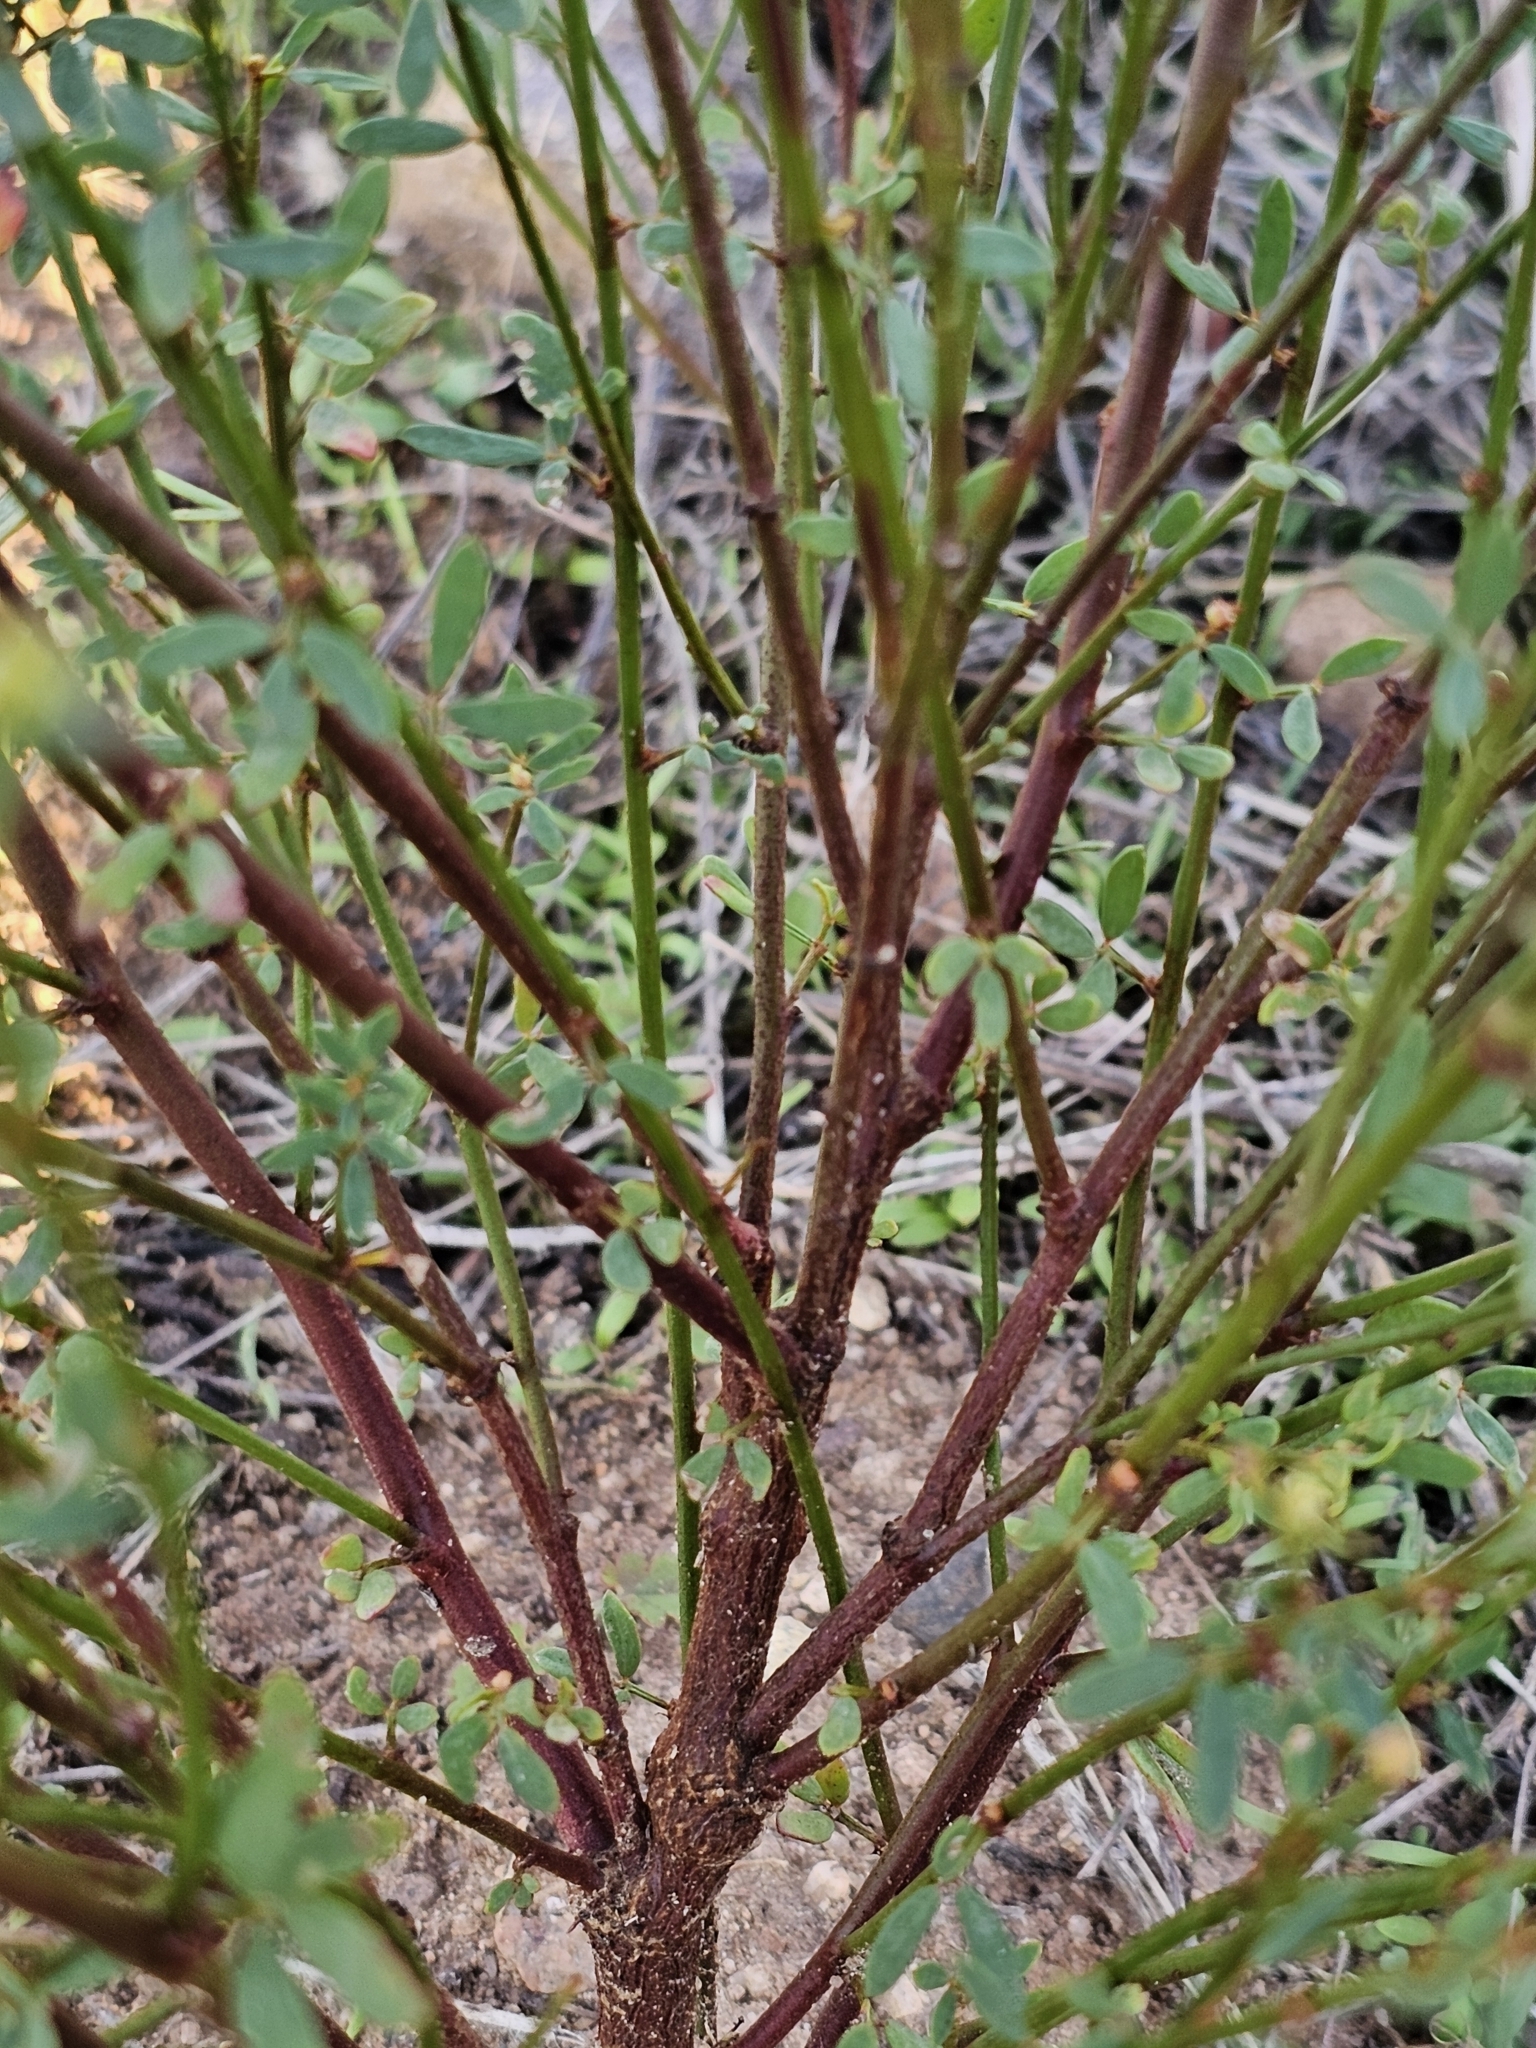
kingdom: Plantae
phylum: Tracheophyta
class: Magnoliopsida
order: Fabales
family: Fabaceae
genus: Acmispon
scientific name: Acmispon glaber
